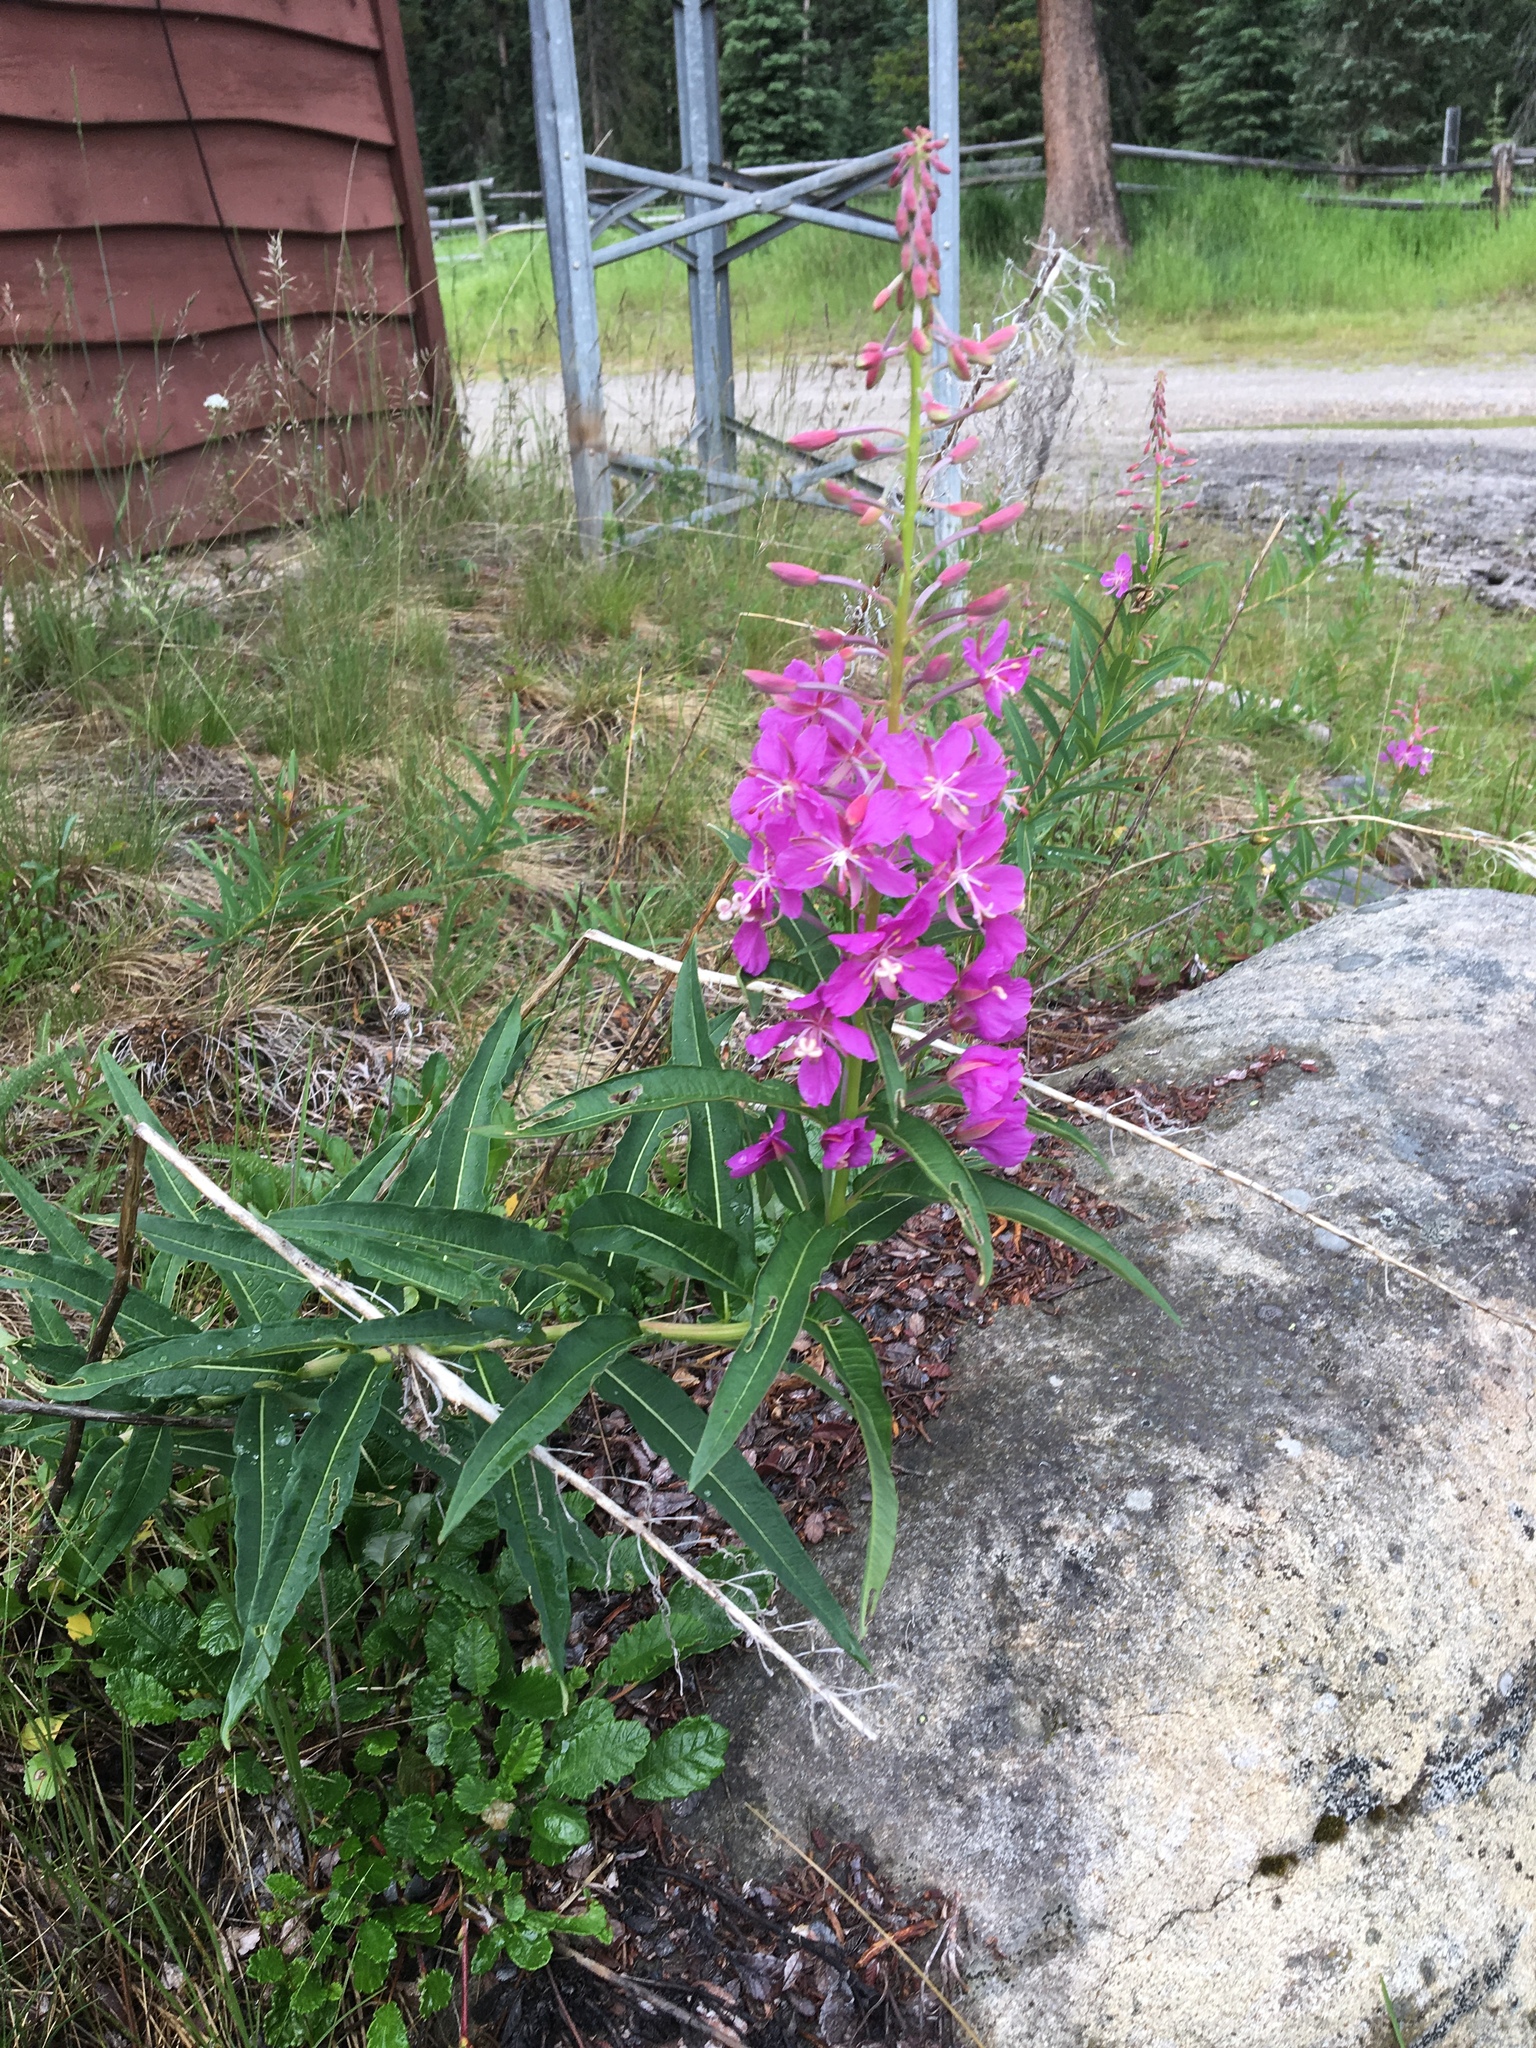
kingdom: Plantae
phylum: Tracheophyta
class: Magnoliopsida
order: Myrtales
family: Onagraceae
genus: Chamaenerion
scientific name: Chamaenerion angustifolium
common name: Fireweed
